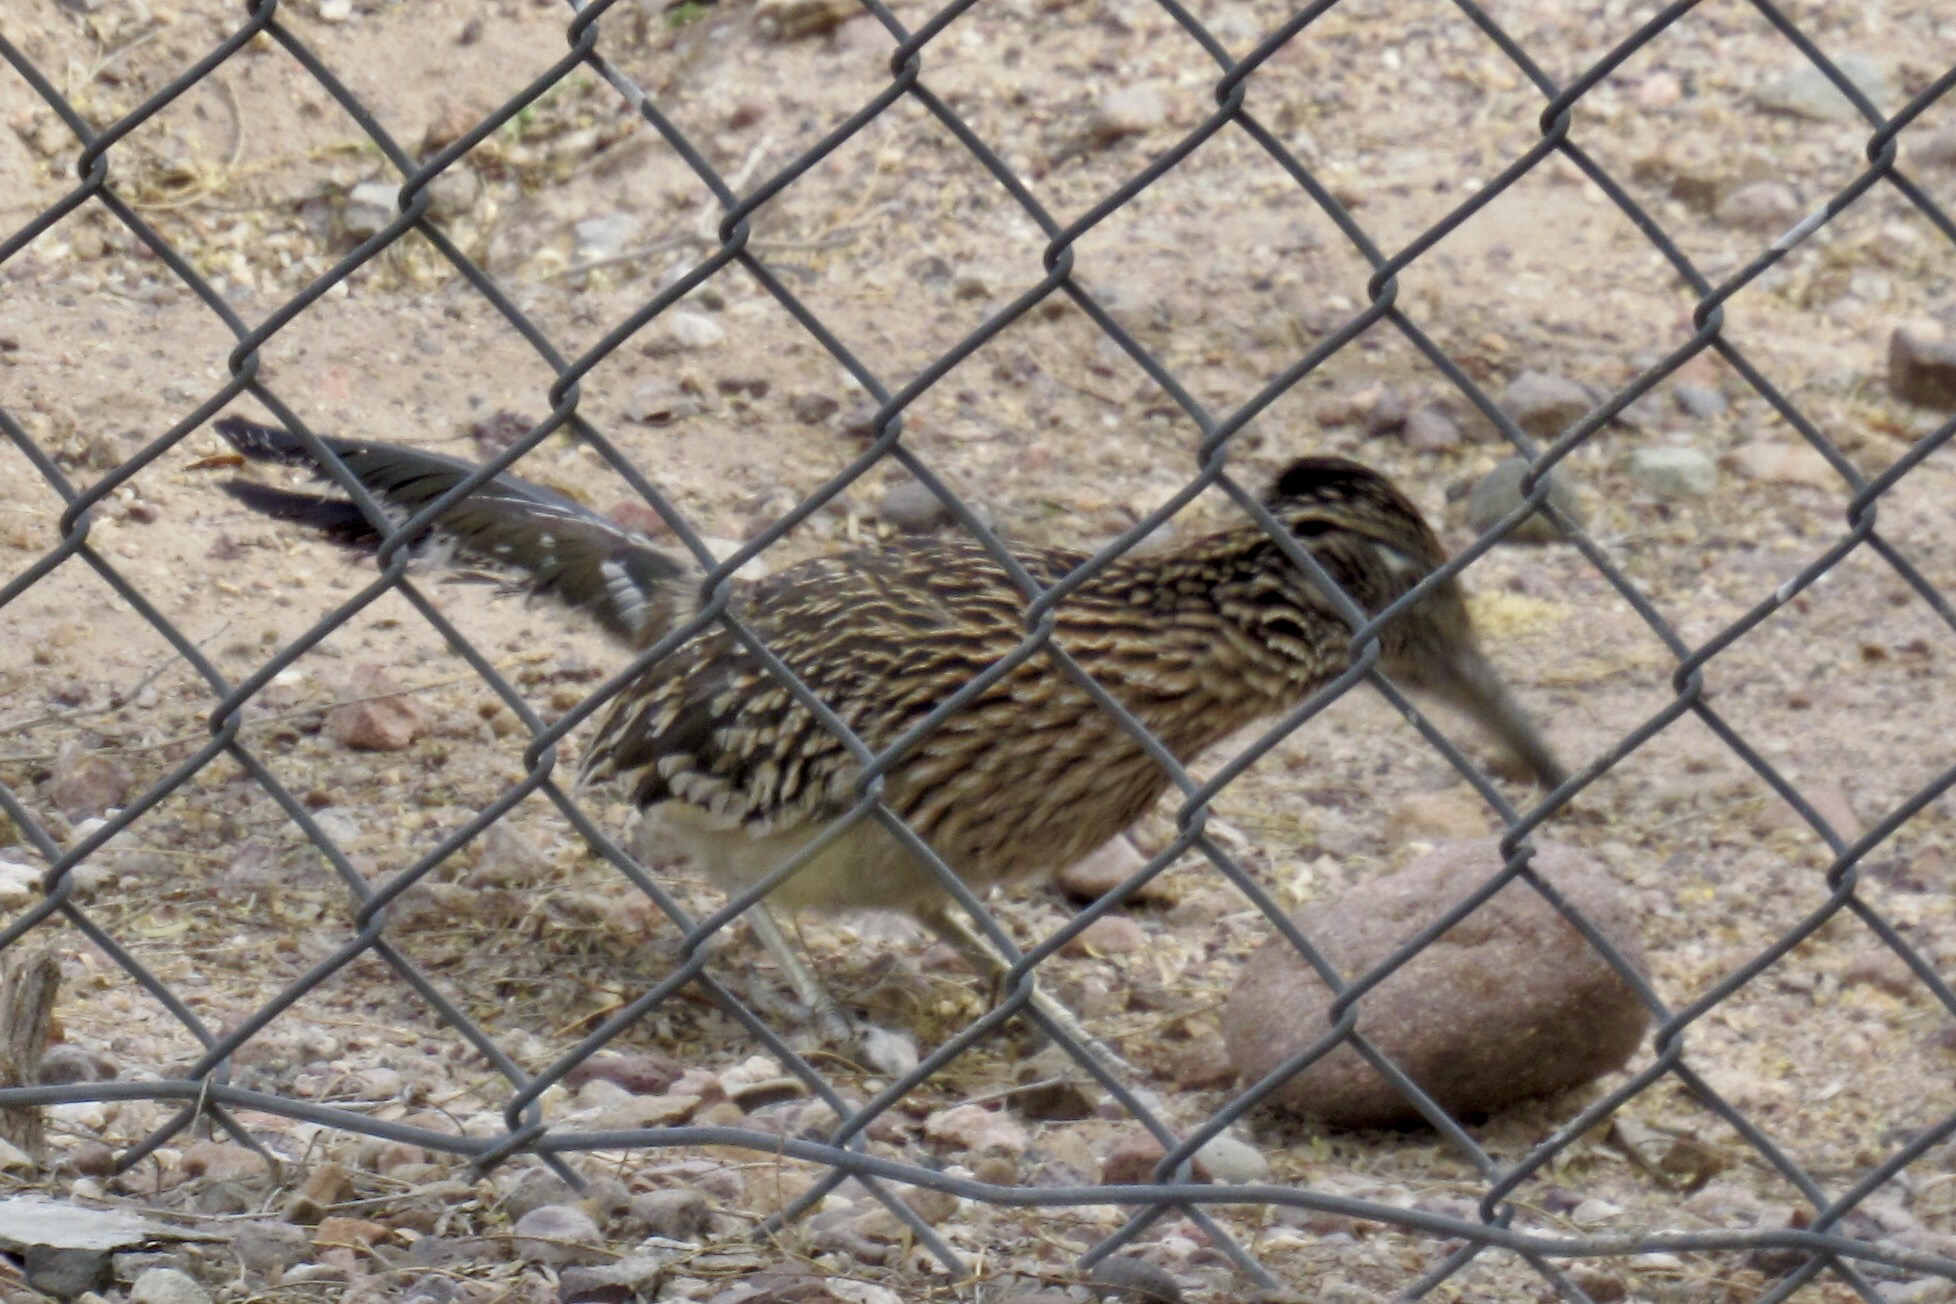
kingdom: Animalia
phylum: Chordata
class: Aves
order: Cuculiformes
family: Cuculidae
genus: Geococcyx
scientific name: Geococcyx californianus
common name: Greater roadrunner
